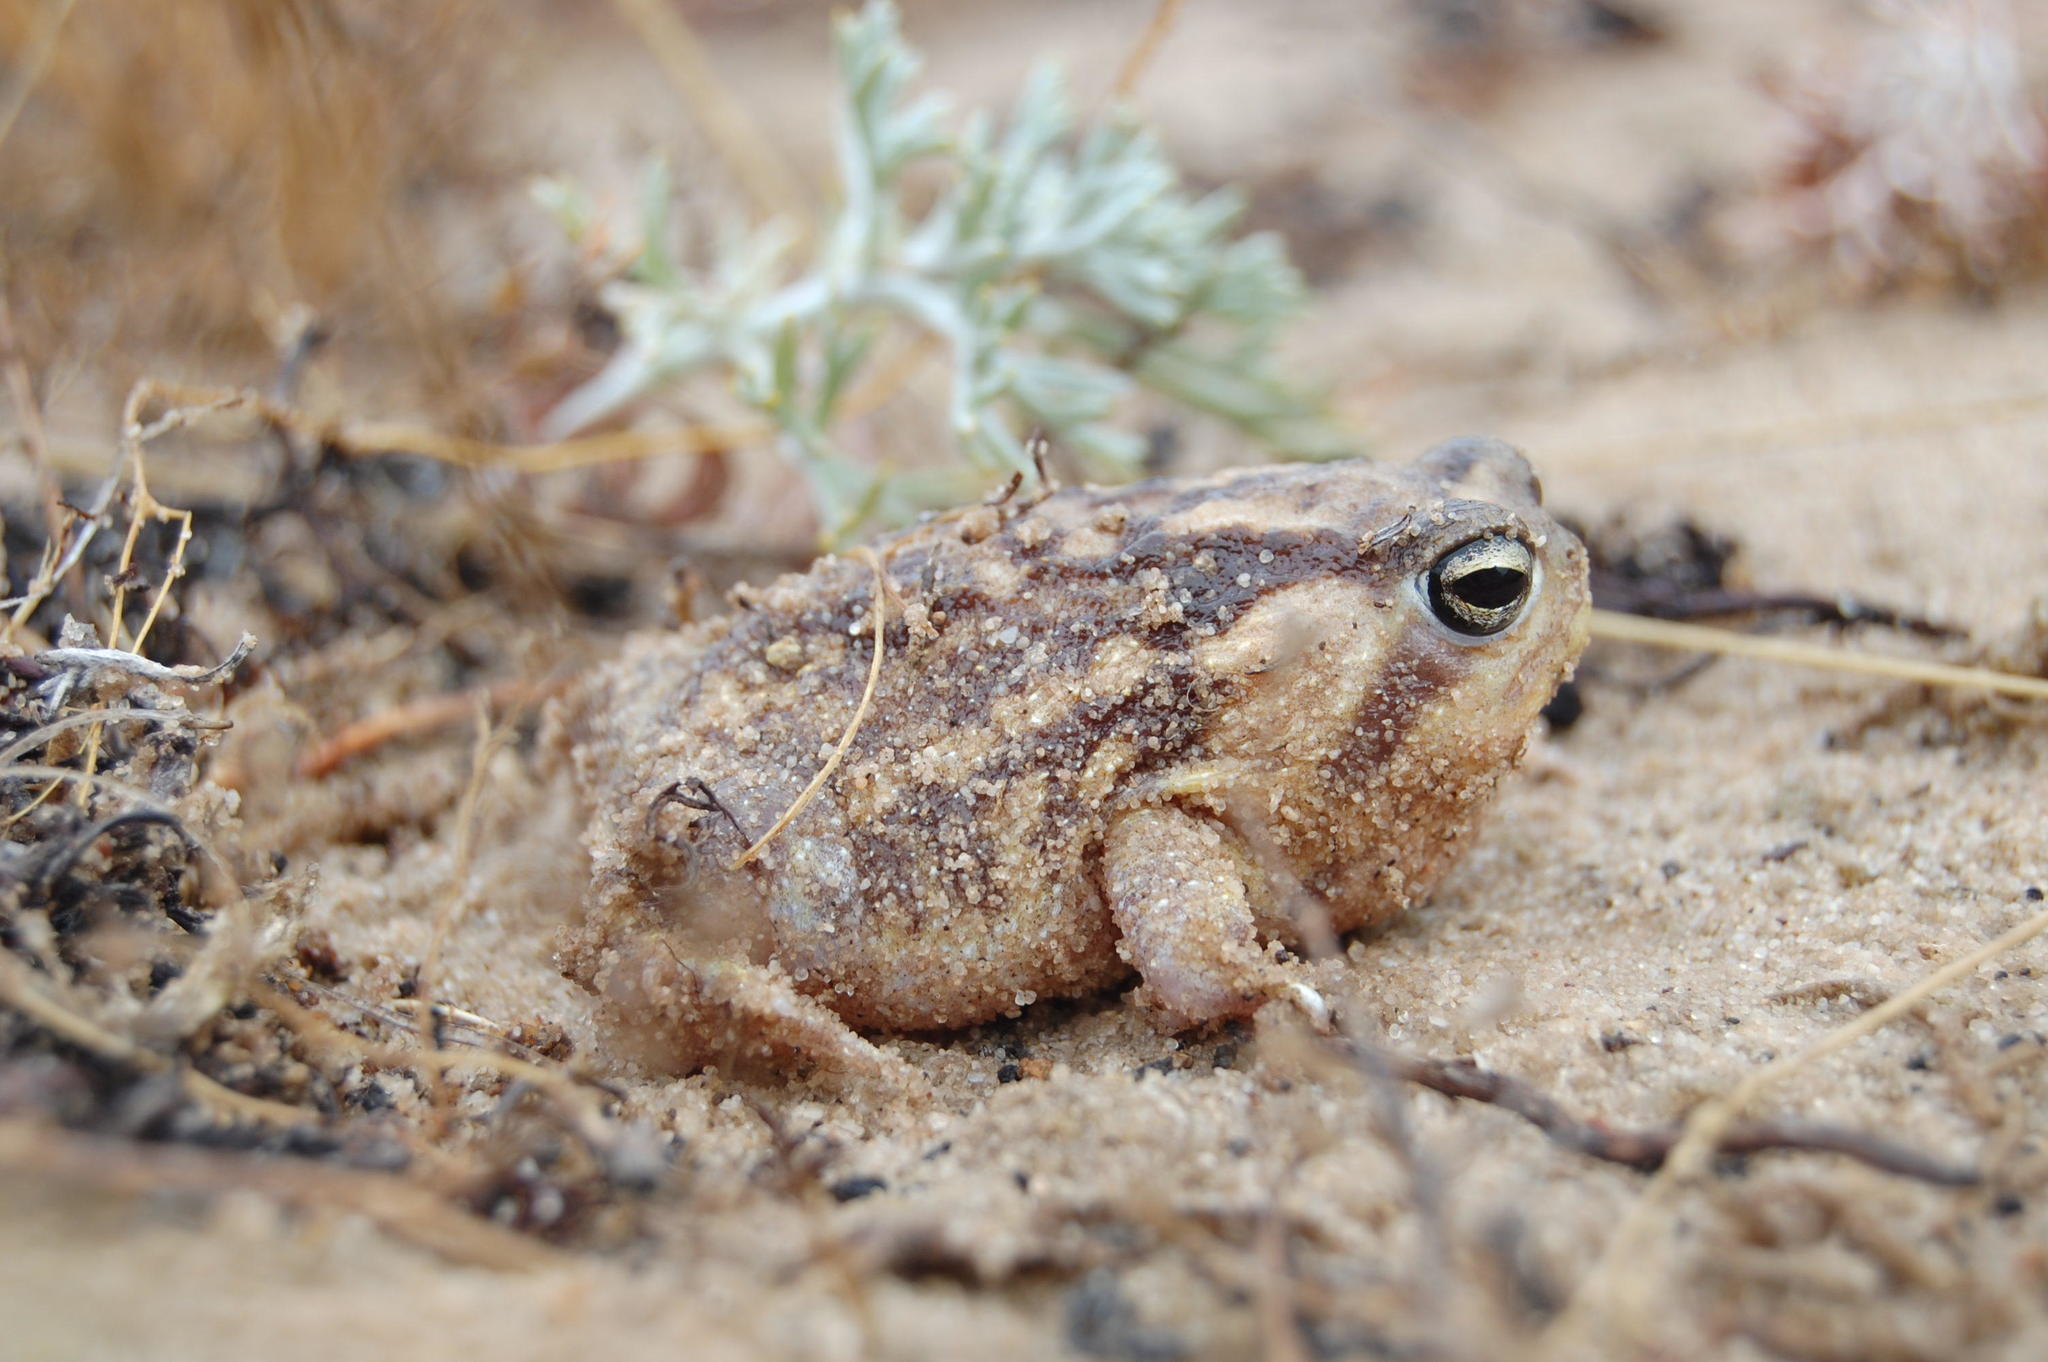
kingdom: Animalia
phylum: Chordata
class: Amphibia
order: Anura
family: Brevicipitidae
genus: Breviceps
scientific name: Breviceps namaquensis
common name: Namaqua rain frog
